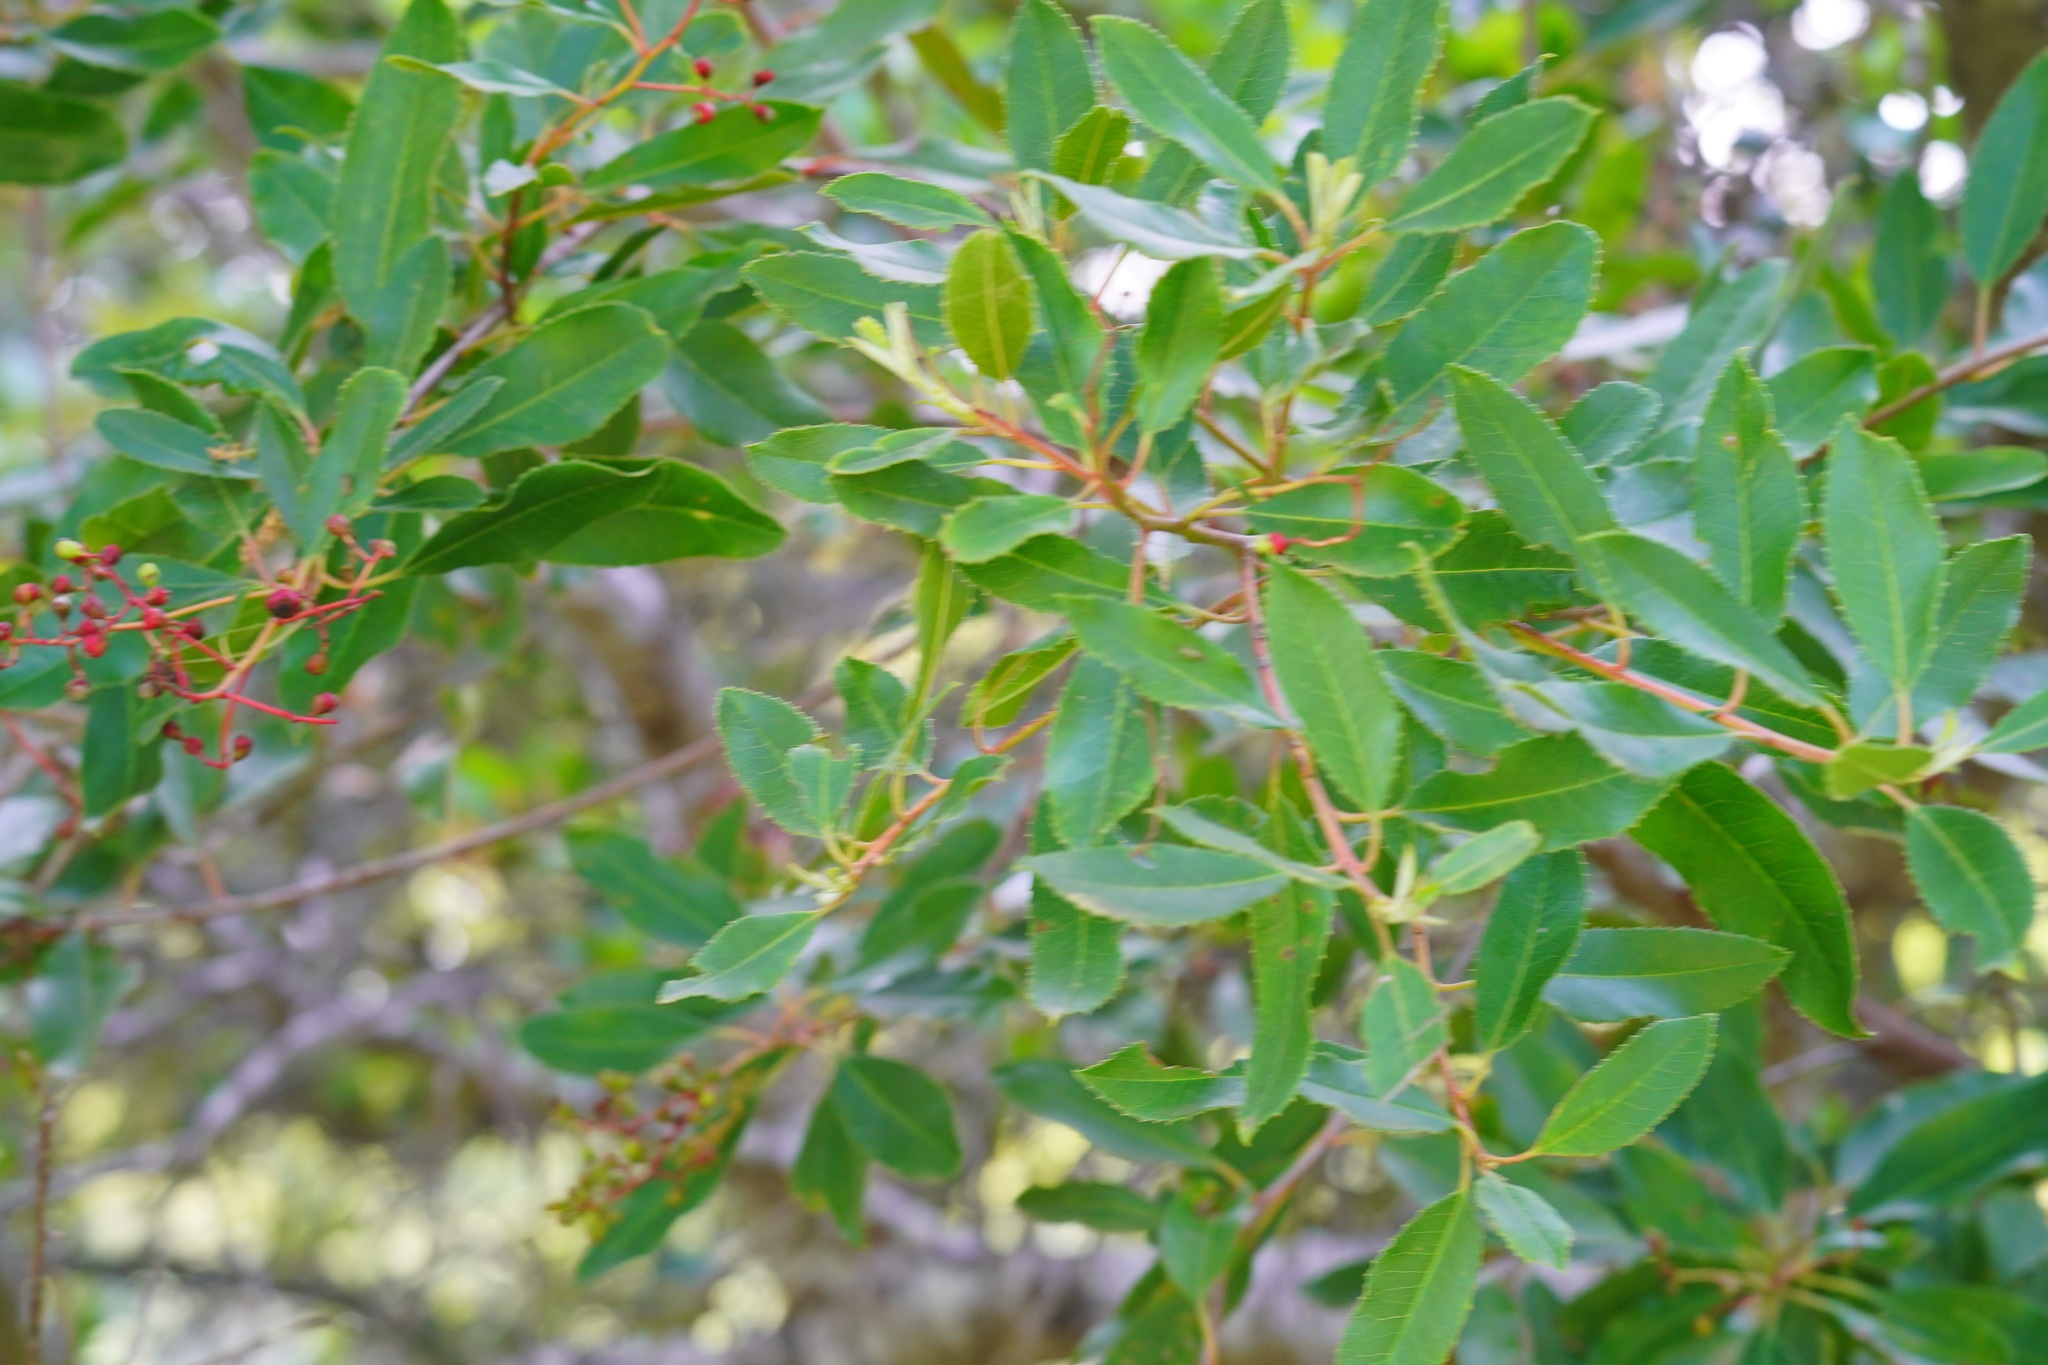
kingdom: Plantae
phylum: Tracheophyta
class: Magnoliopsida
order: Rosales
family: Rosaceae
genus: Heteromeles
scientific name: Heteromeles arbutifolia
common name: California-holly
